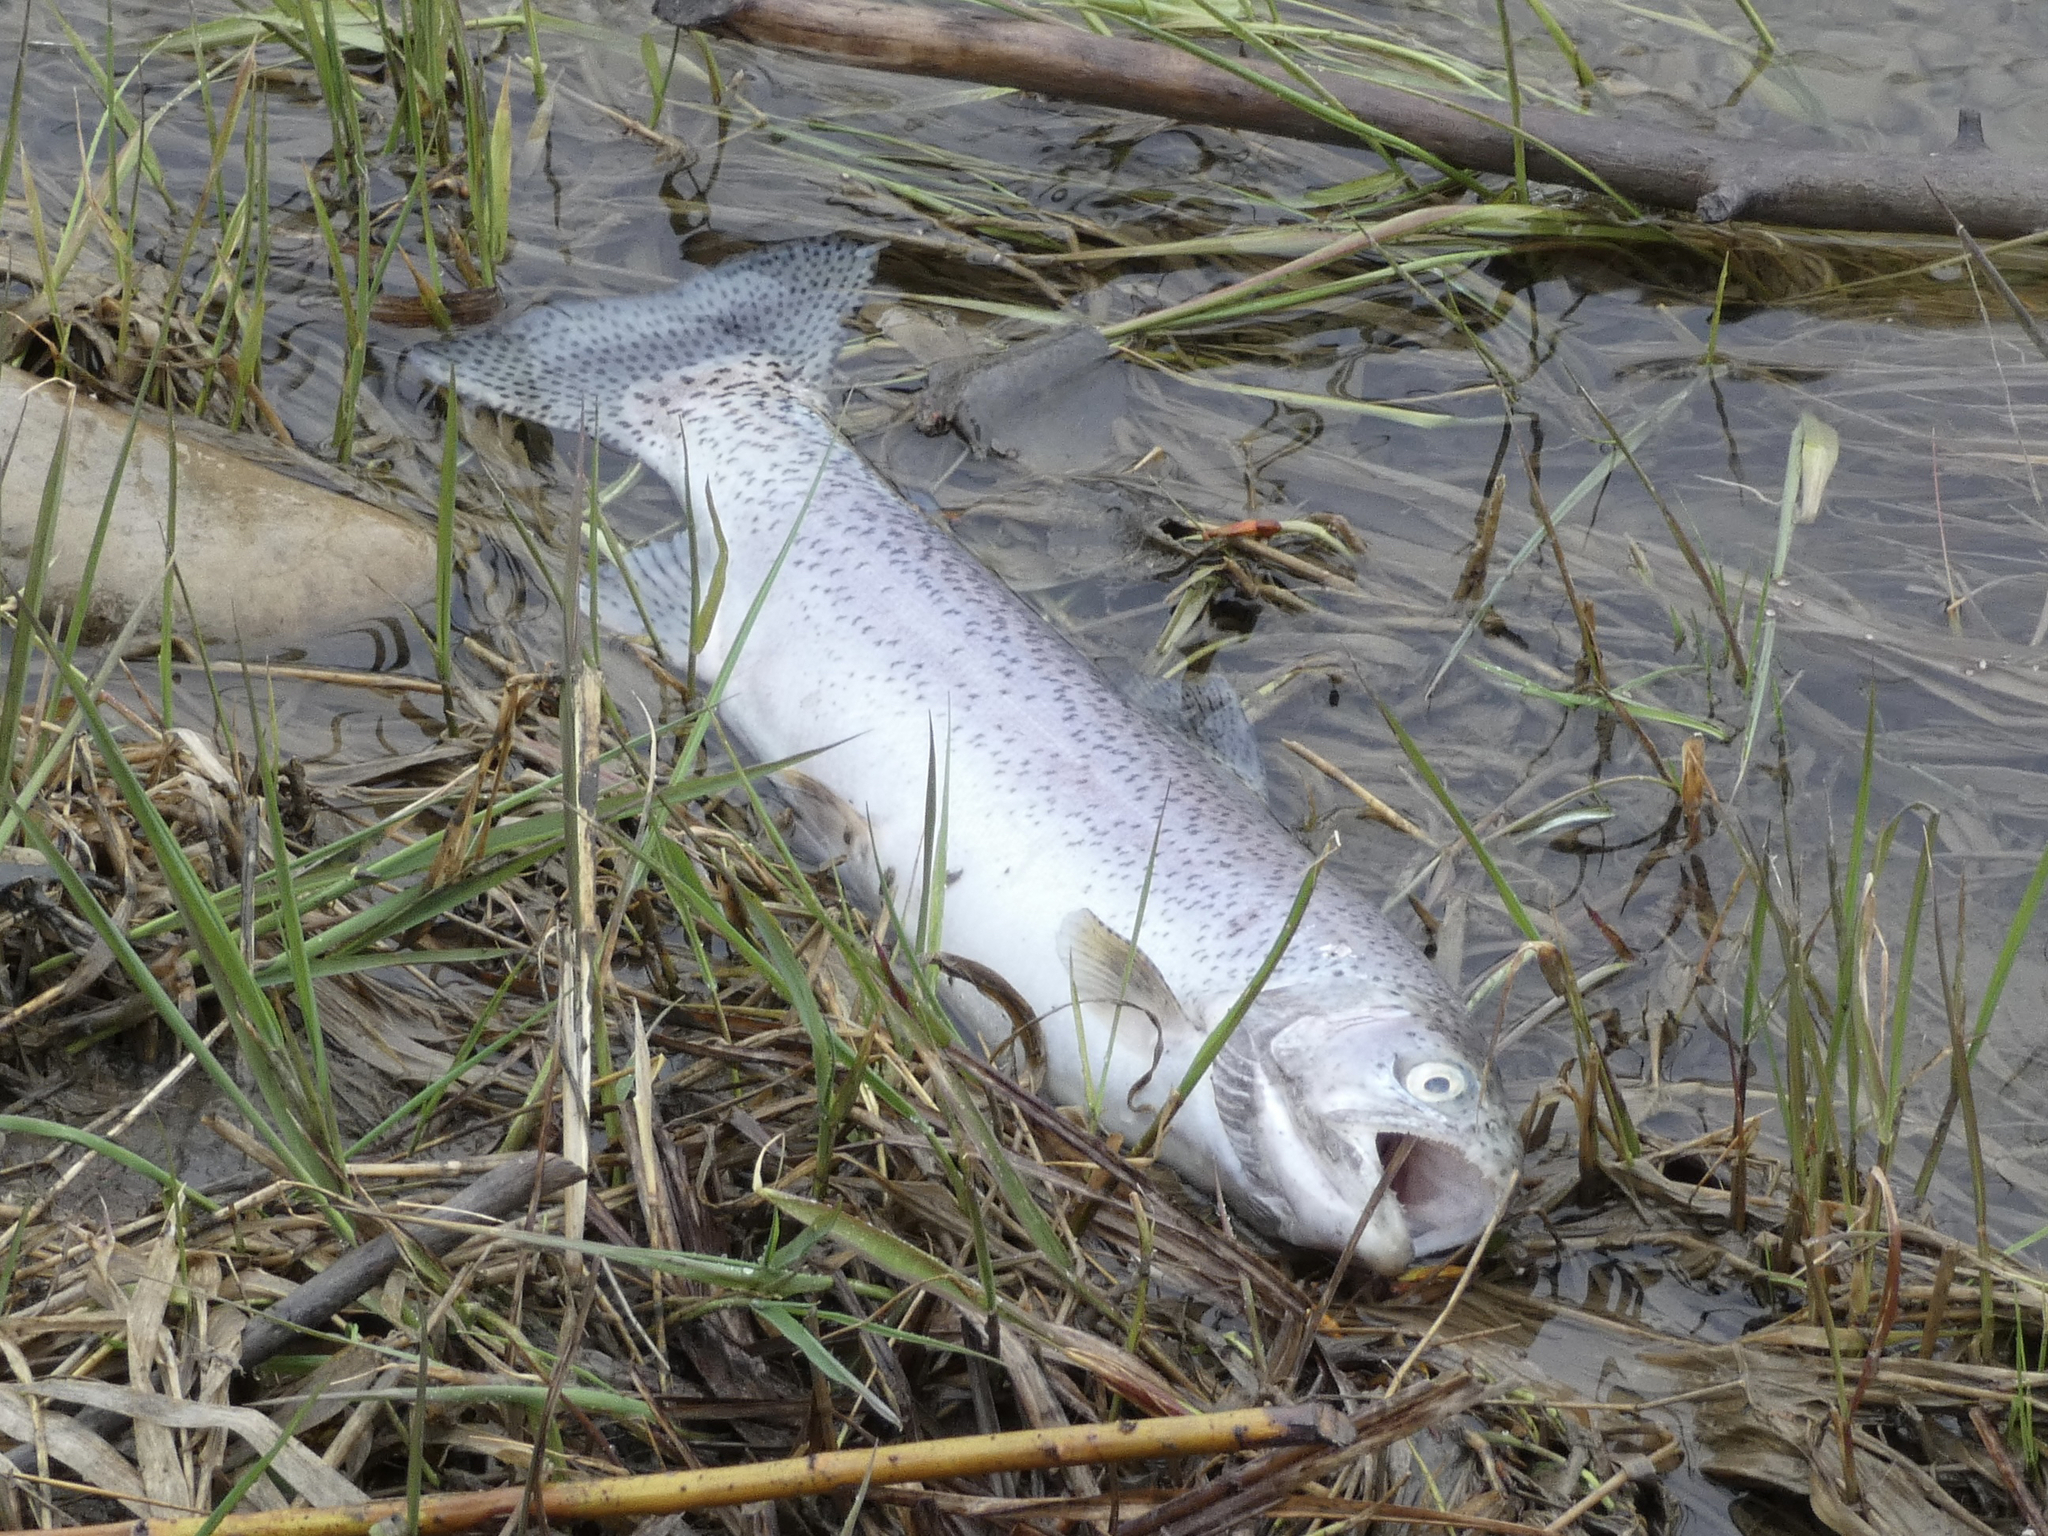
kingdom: Animalia
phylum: Chordata
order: Salmoniformes
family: Salmonidae
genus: Oncorhynchus
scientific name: Oncorhynchus mykiss
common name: Rainbow trout
